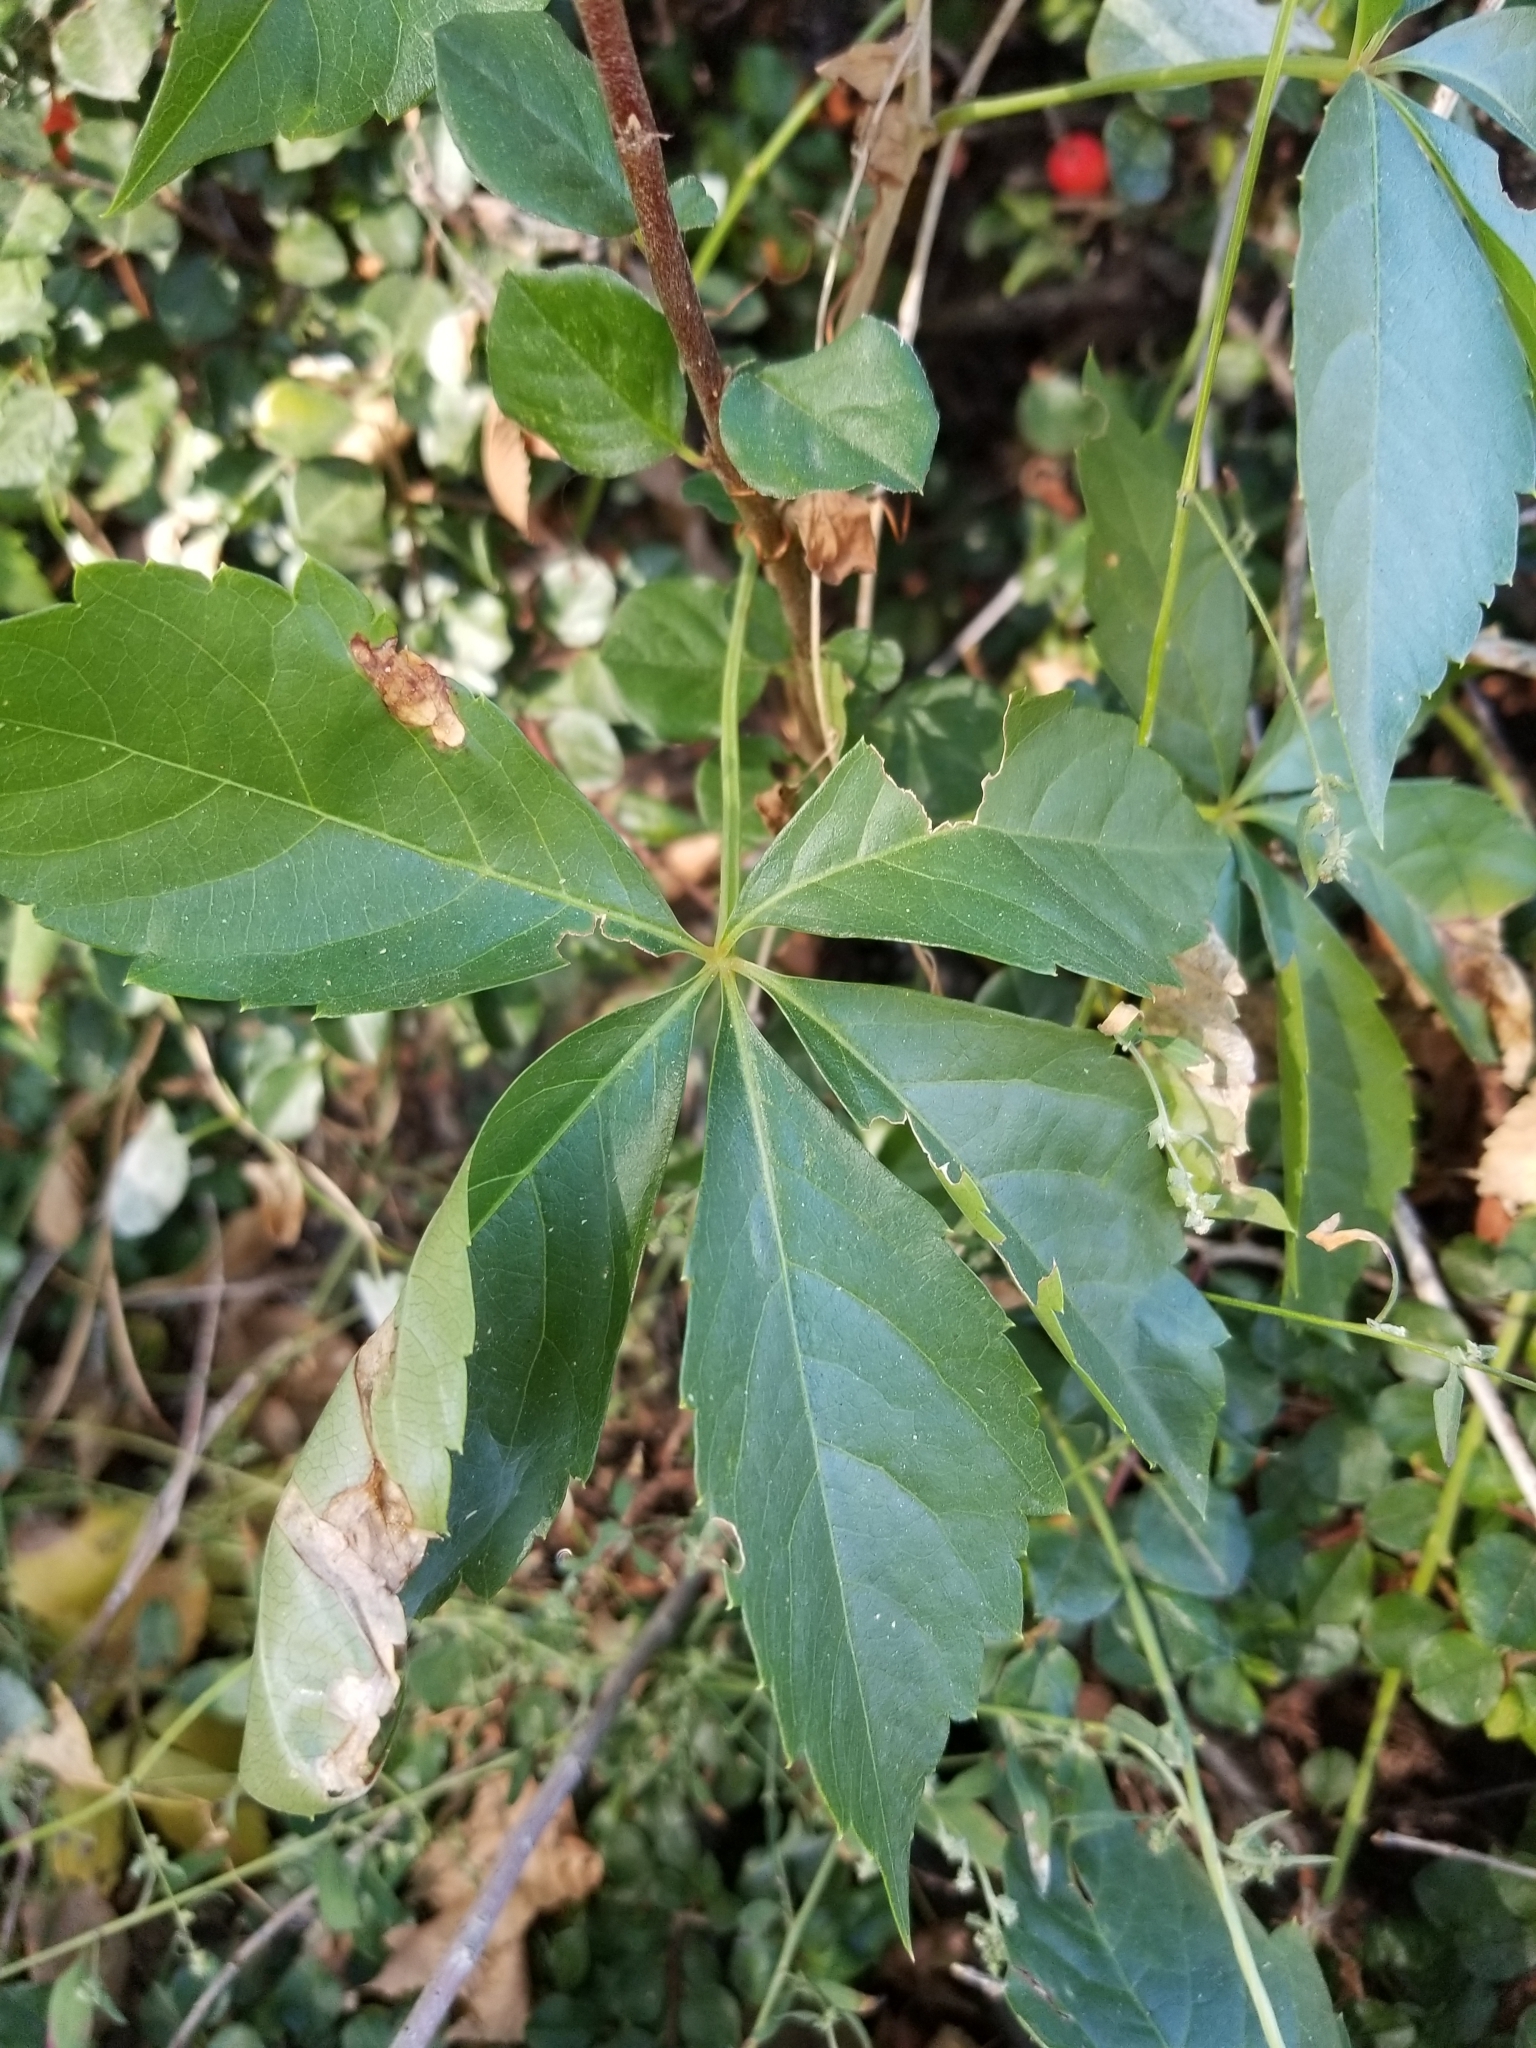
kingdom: Plantae
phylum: Tracheophyta
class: Magnoliopsida
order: Vitales
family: Vitaceae
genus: Parthenocissus
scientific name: Parthenocissus quinquefolia
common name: Virginia-creeper
